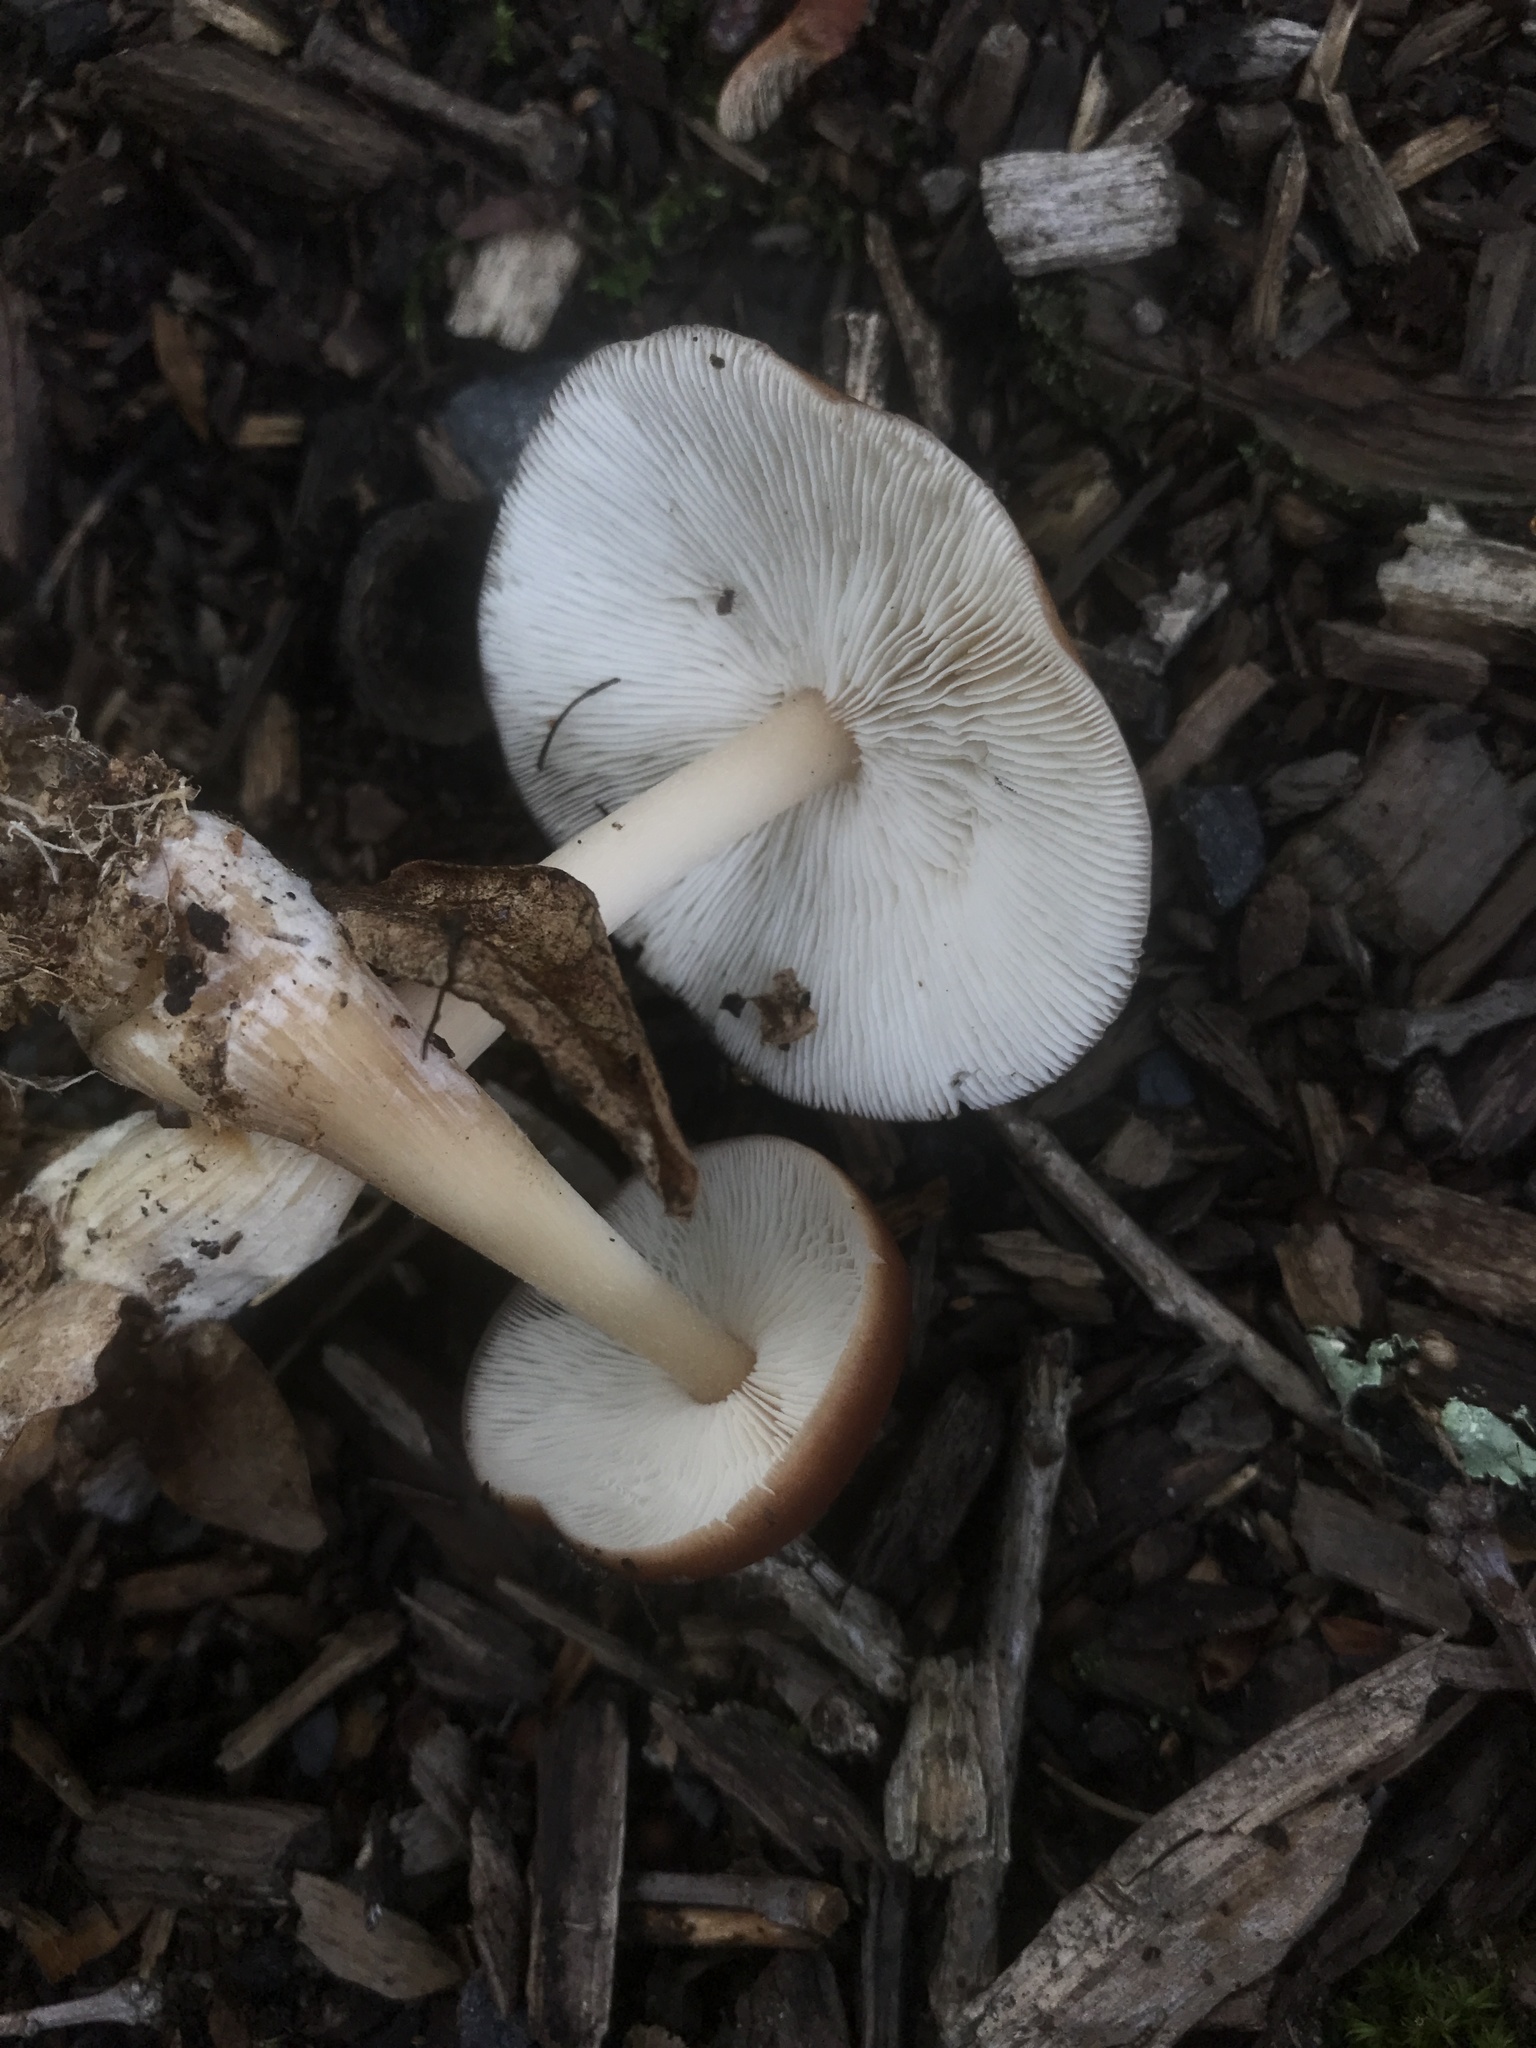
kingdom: Fungi
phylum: Basidiomycota
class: Agaricomycetes
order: Agaricales
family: Omphalotaceae
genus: Rhodocollybia
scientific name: Rhodocollybia butyracea
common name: Butter cap
